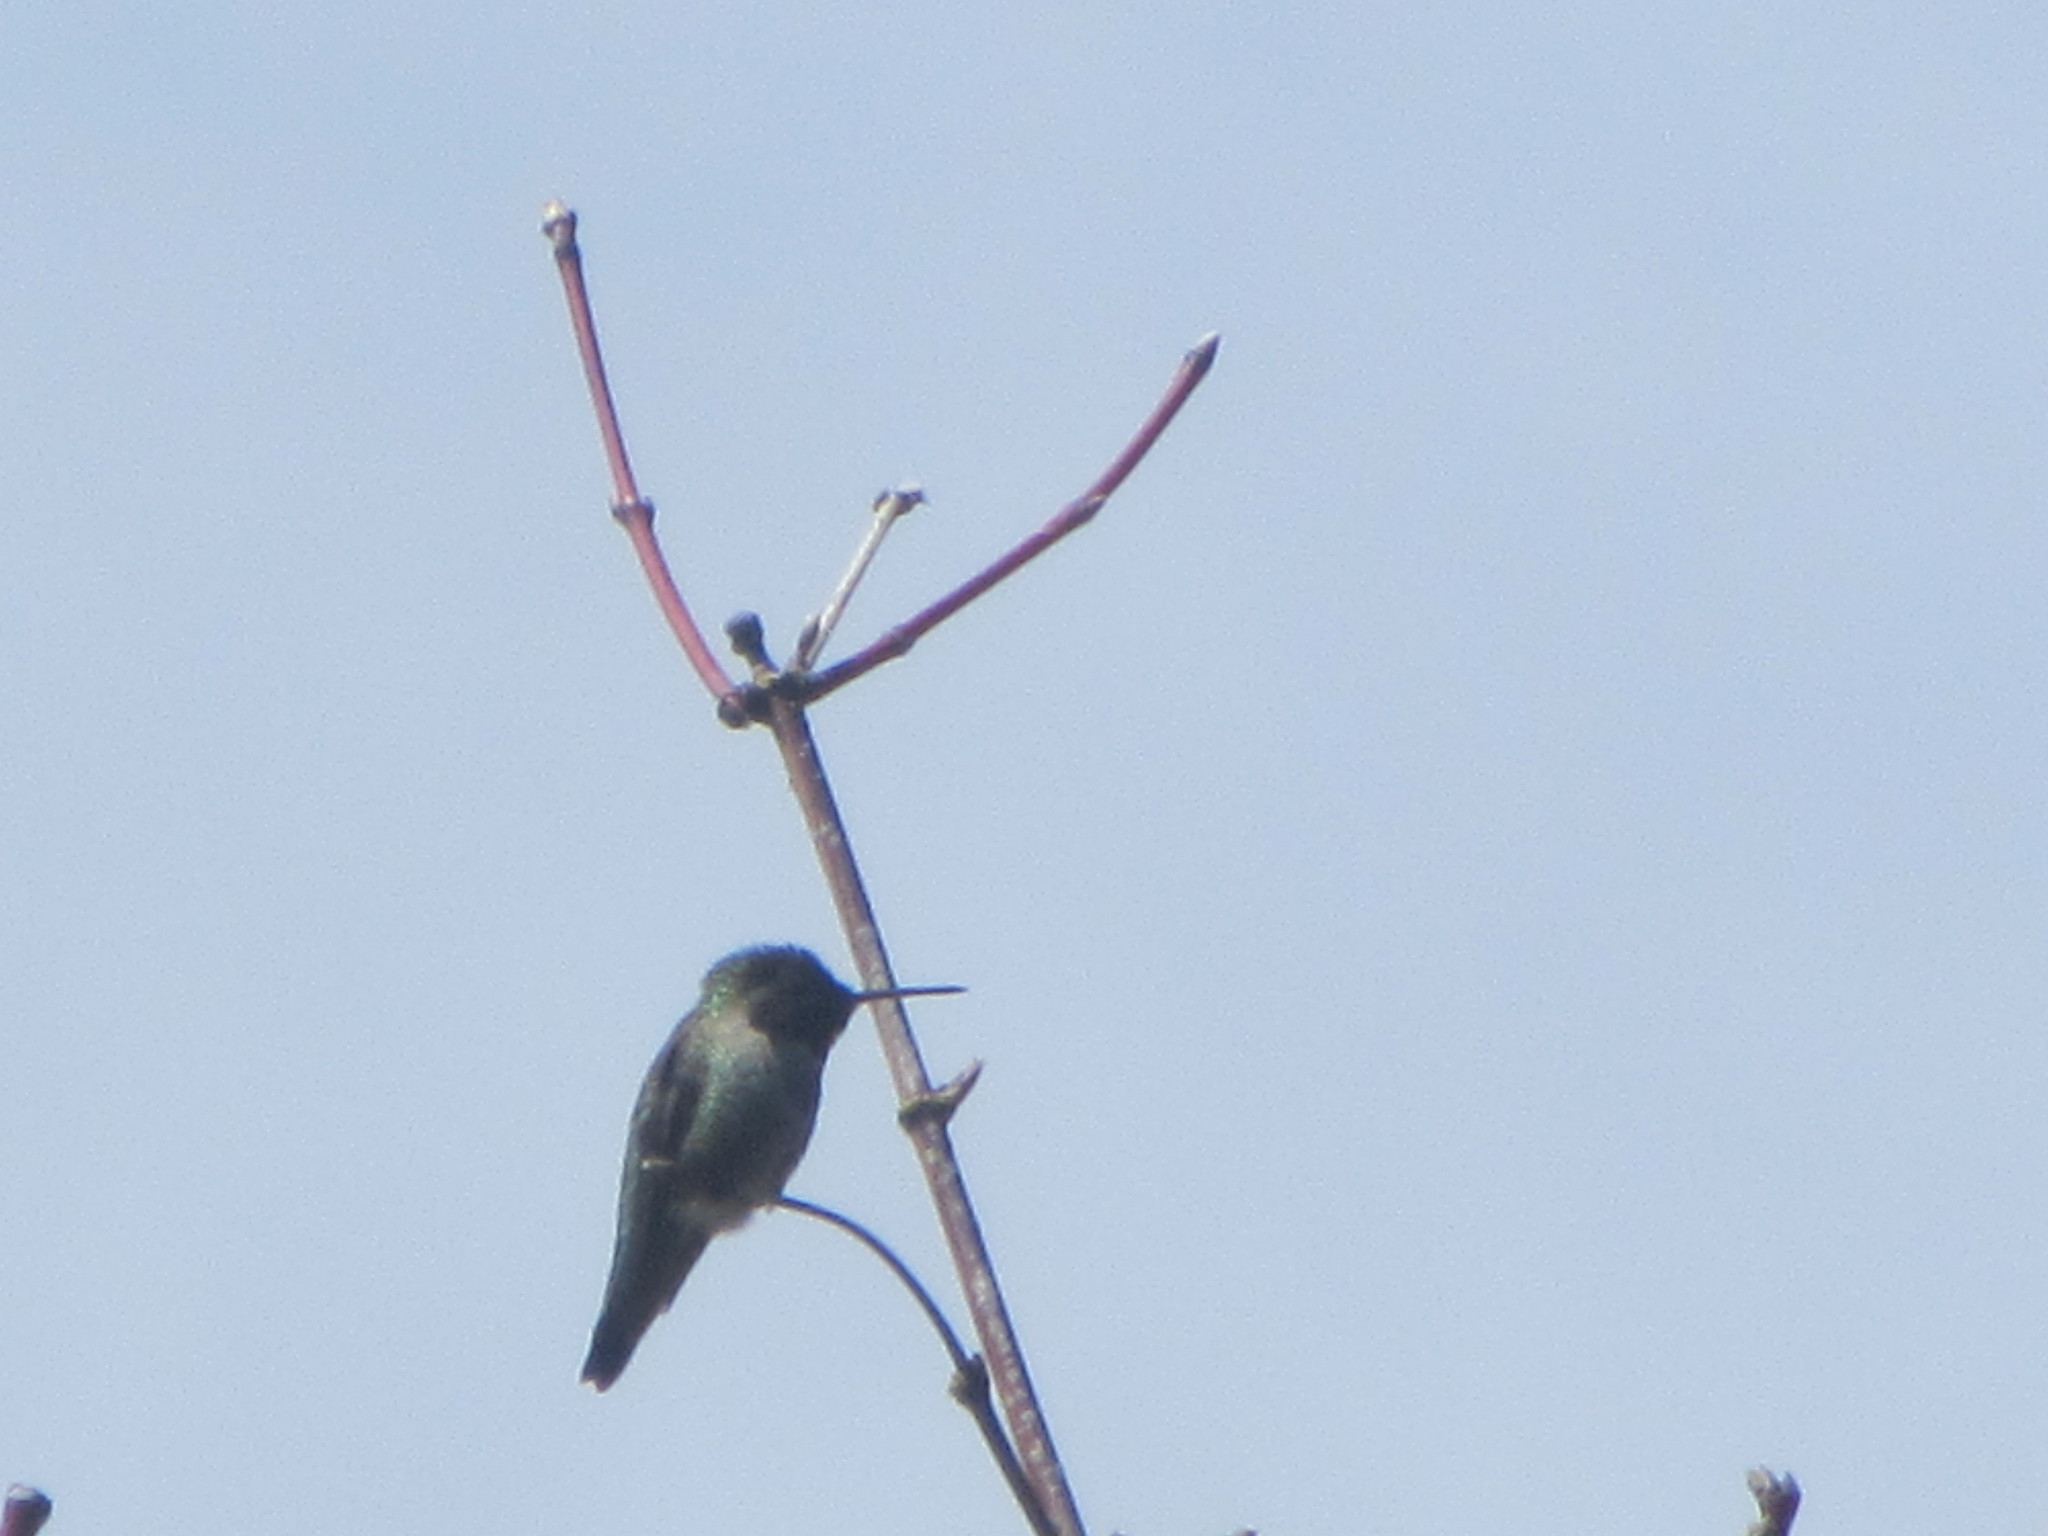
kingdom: Animalia
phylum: Chordata
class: Aves
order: Apodiformes
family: Trochilidae
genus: Calypte
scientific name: Calypte anna
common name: Anna's hummingbird
